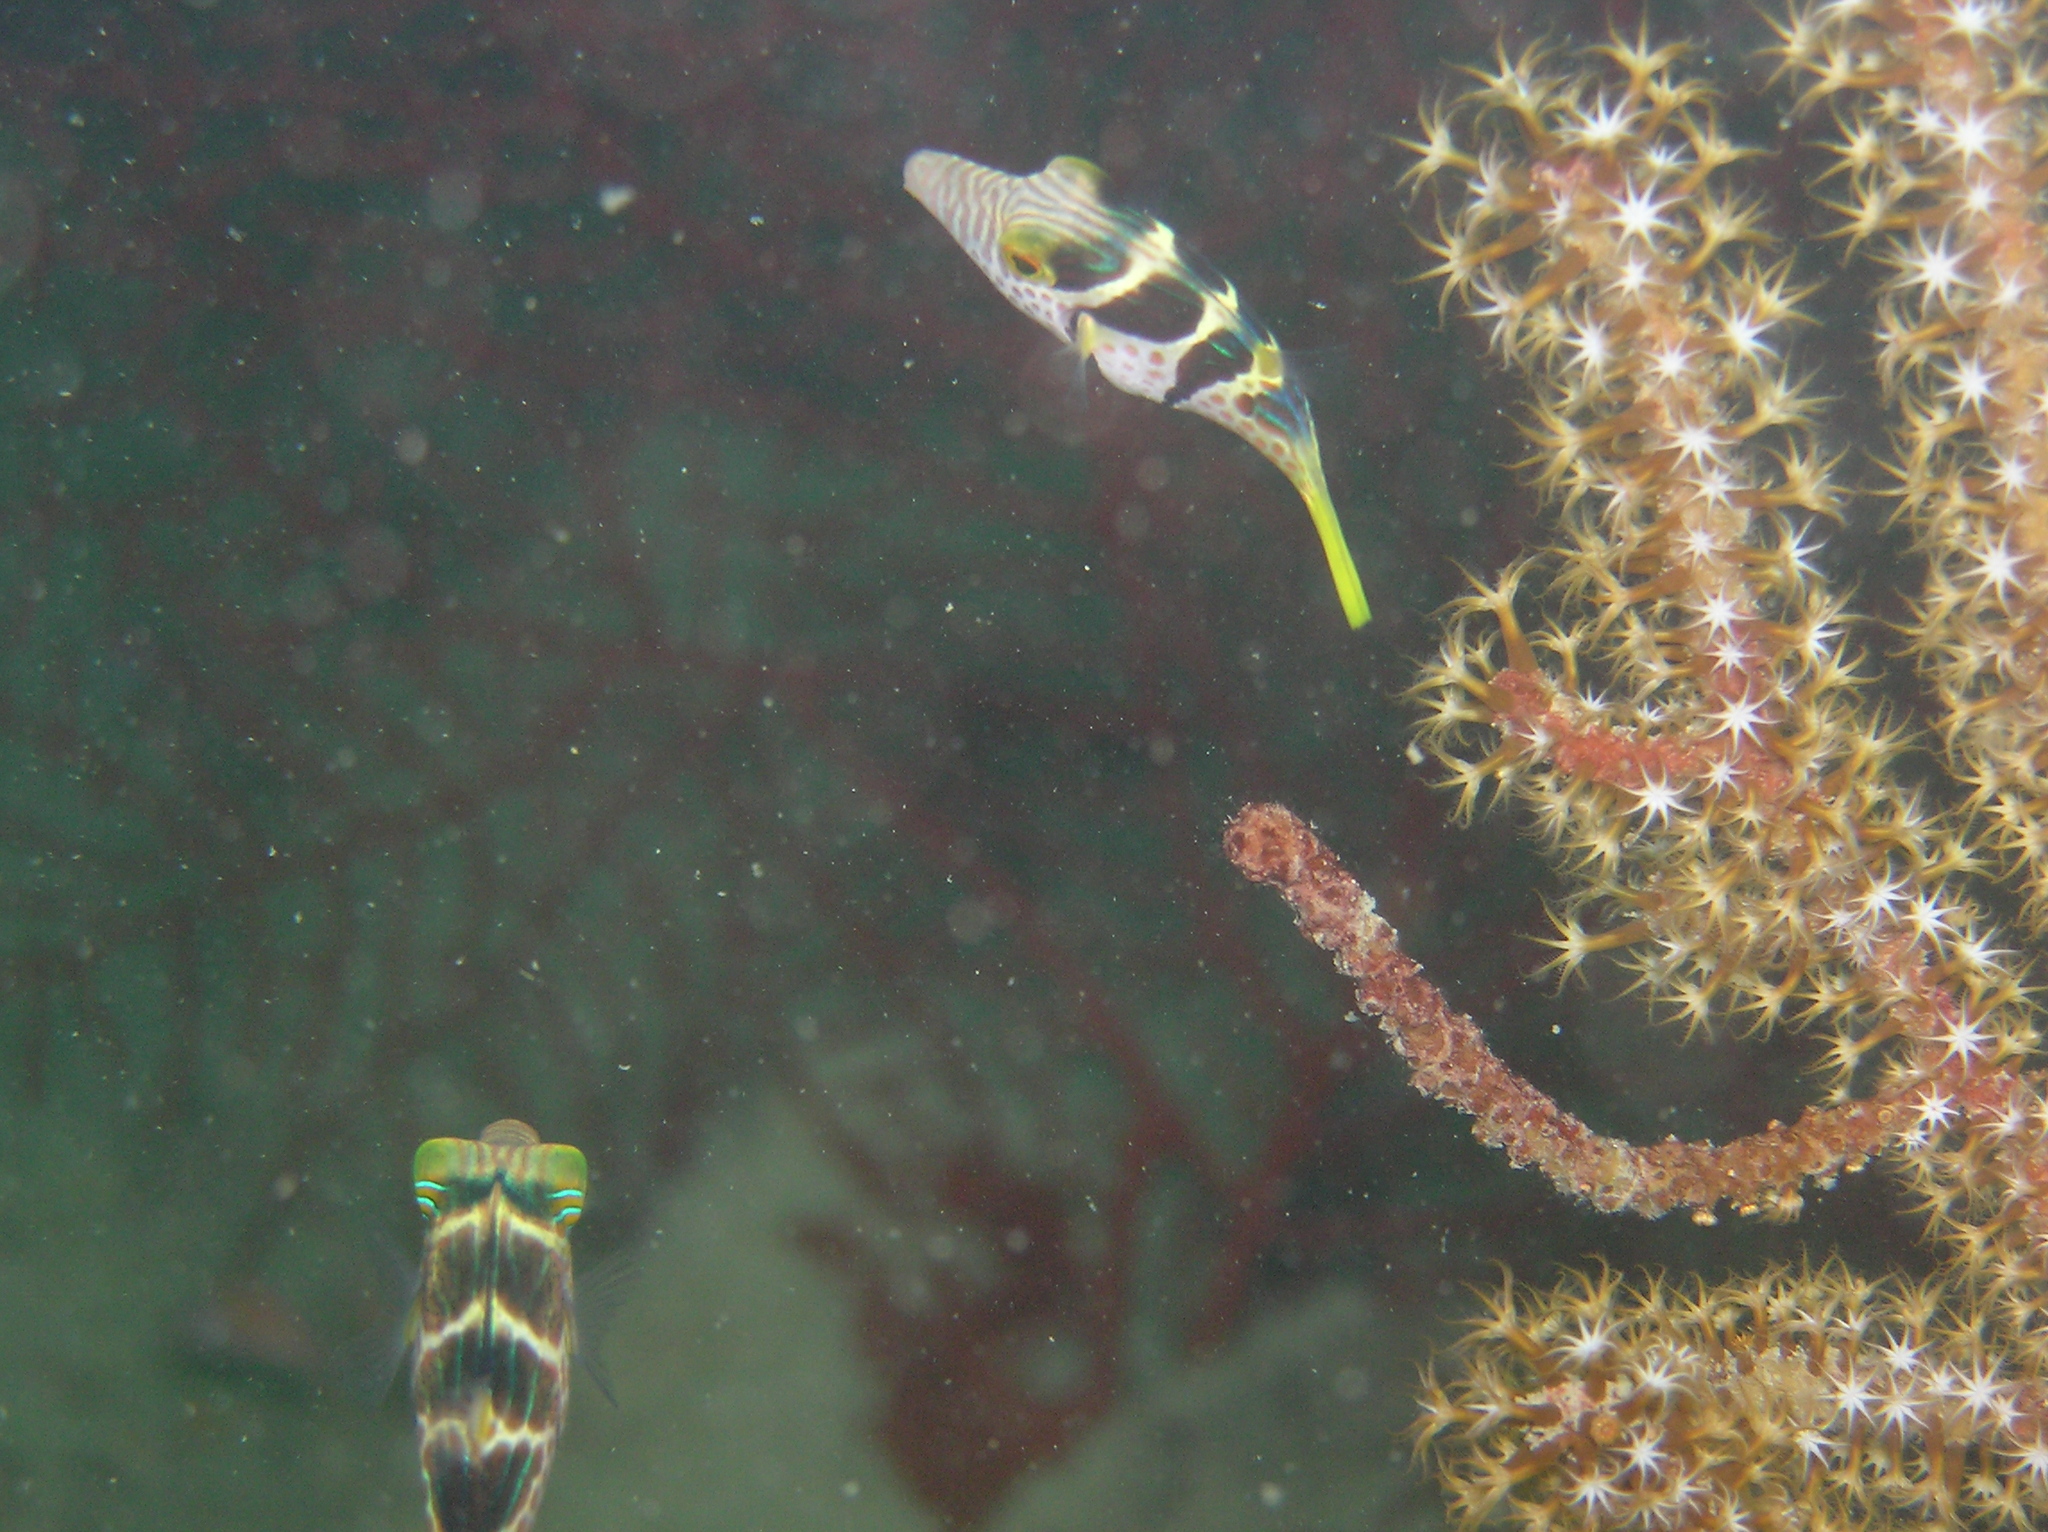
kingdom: Animalia
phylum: Chordata
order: Tetraodontiformes
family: Tetraodontidae
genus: Canthigaster
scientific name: Canthigaster valentini
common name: Banded toby
